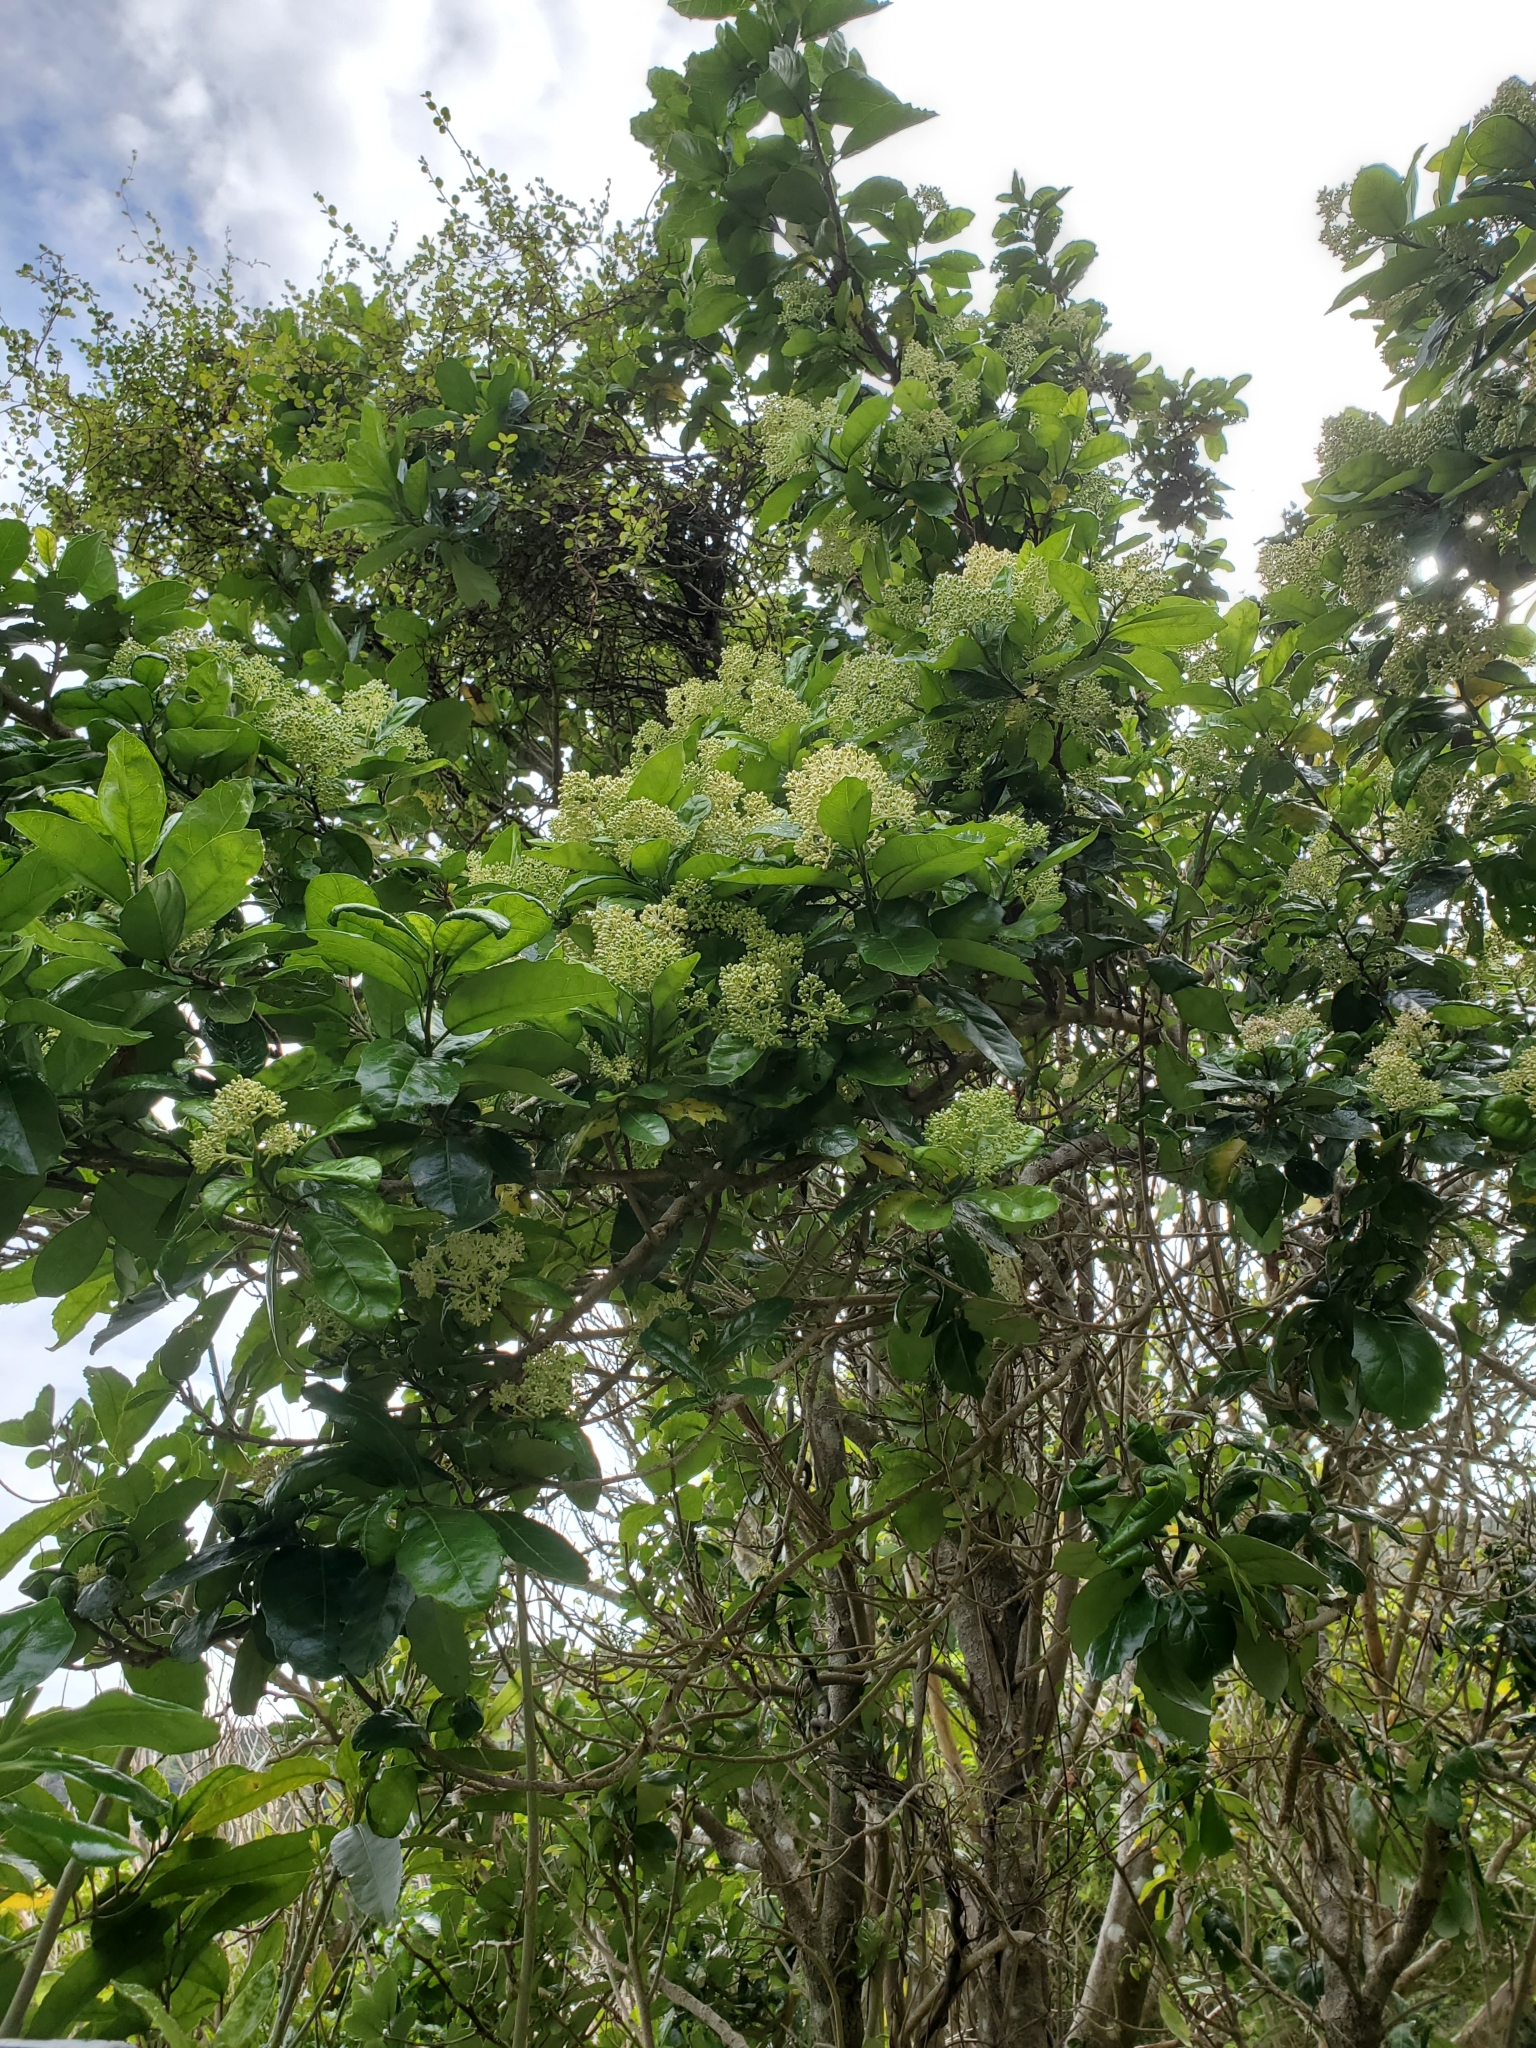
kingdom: Plantae
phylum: Tracheophyta
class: Magnoliopsida
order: Apiales
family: Pennantiaceae
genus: Pennantia
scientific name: Pennantia corymbosa
